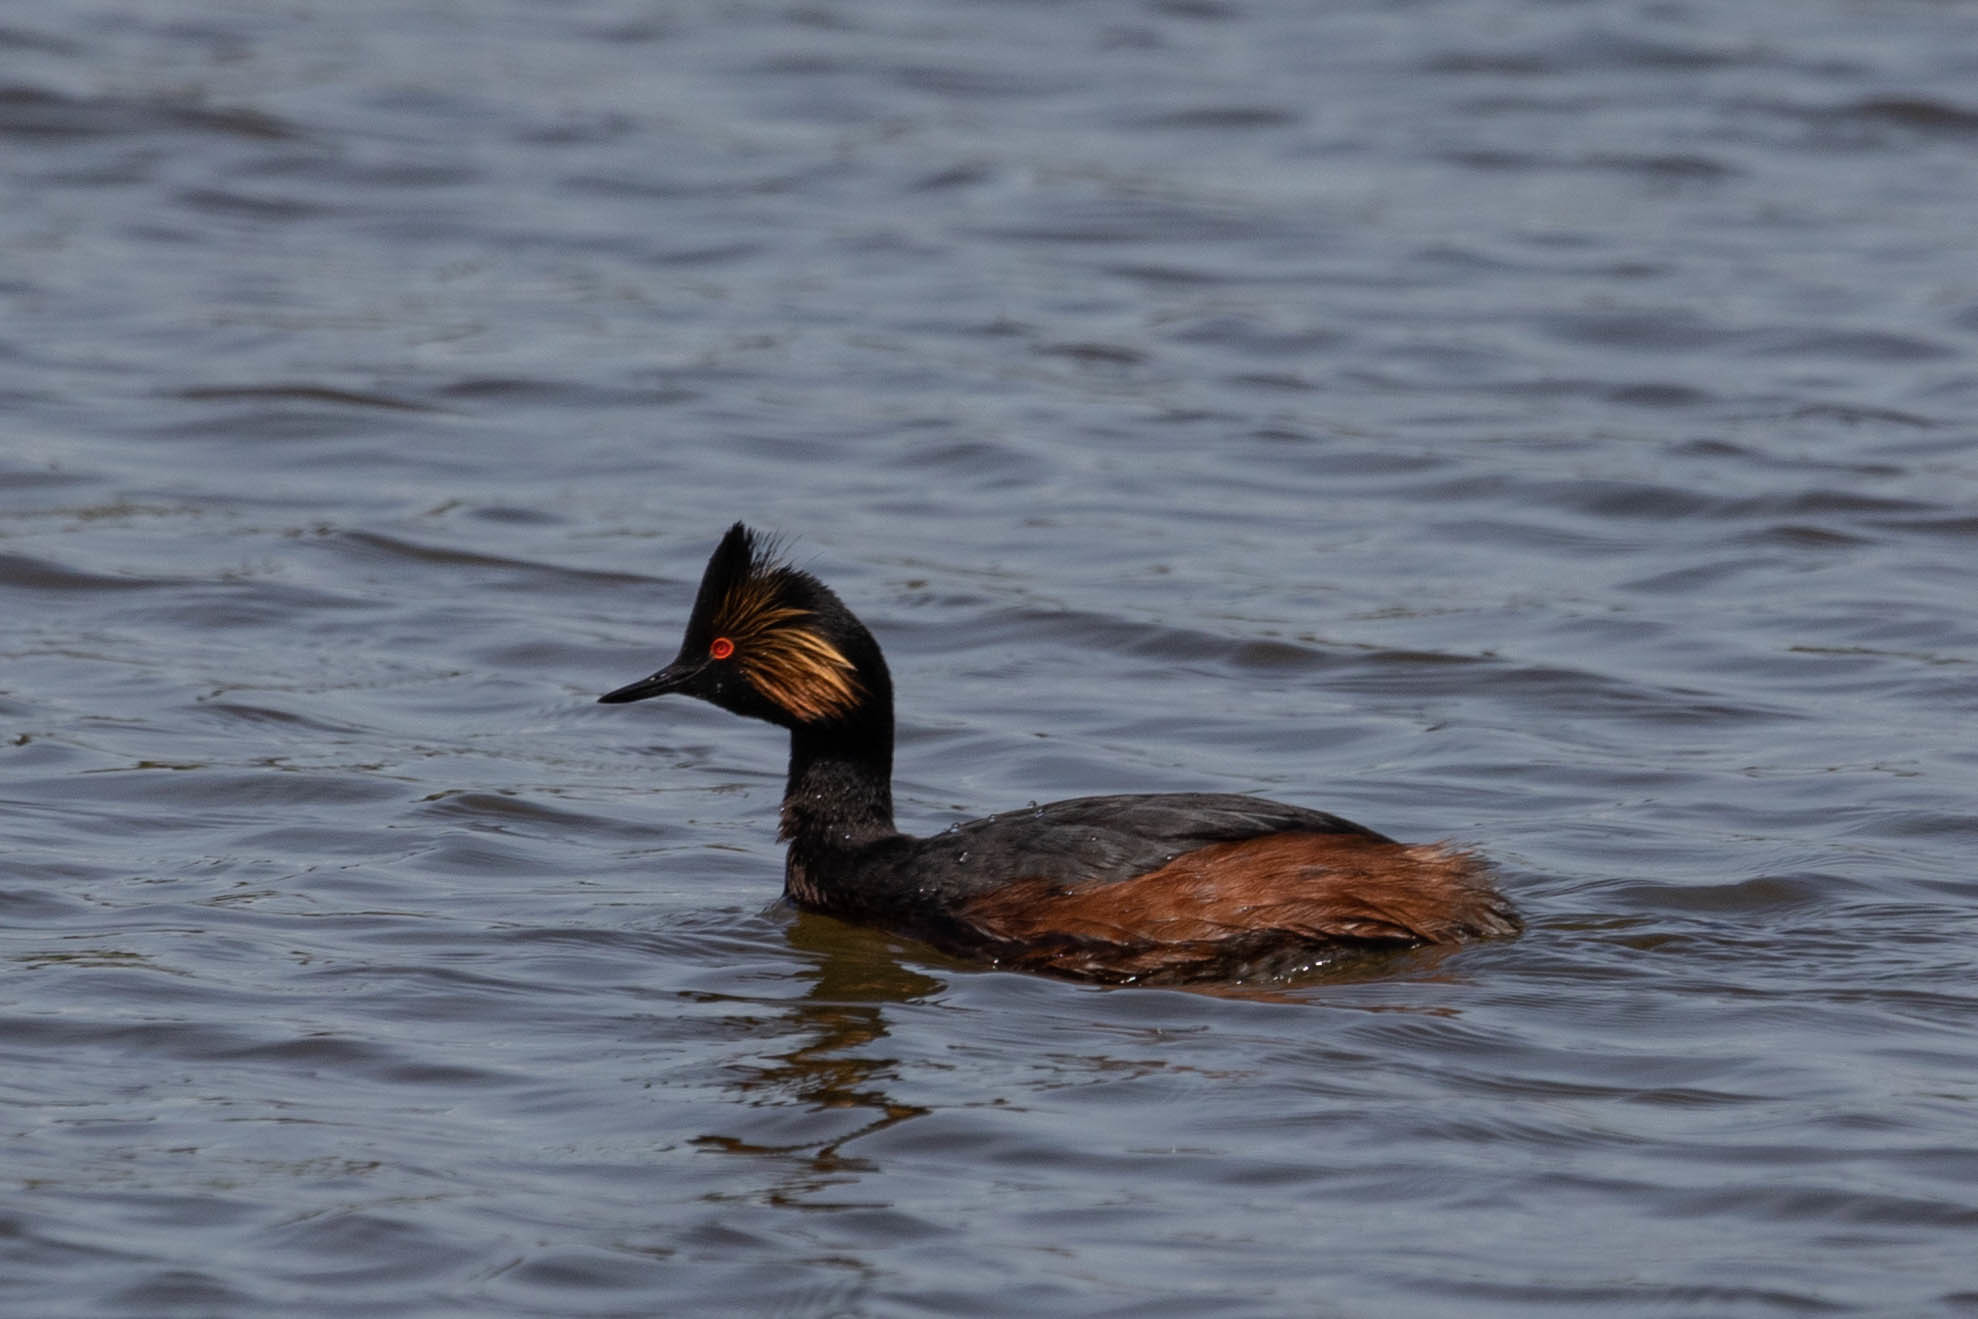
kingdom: Animalia
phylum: Chordata
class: Aves
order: Podicipediformes
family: Podicipedidae
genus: Podiceps
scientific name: Podiceps nigricollis
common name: Black-necked grebe
